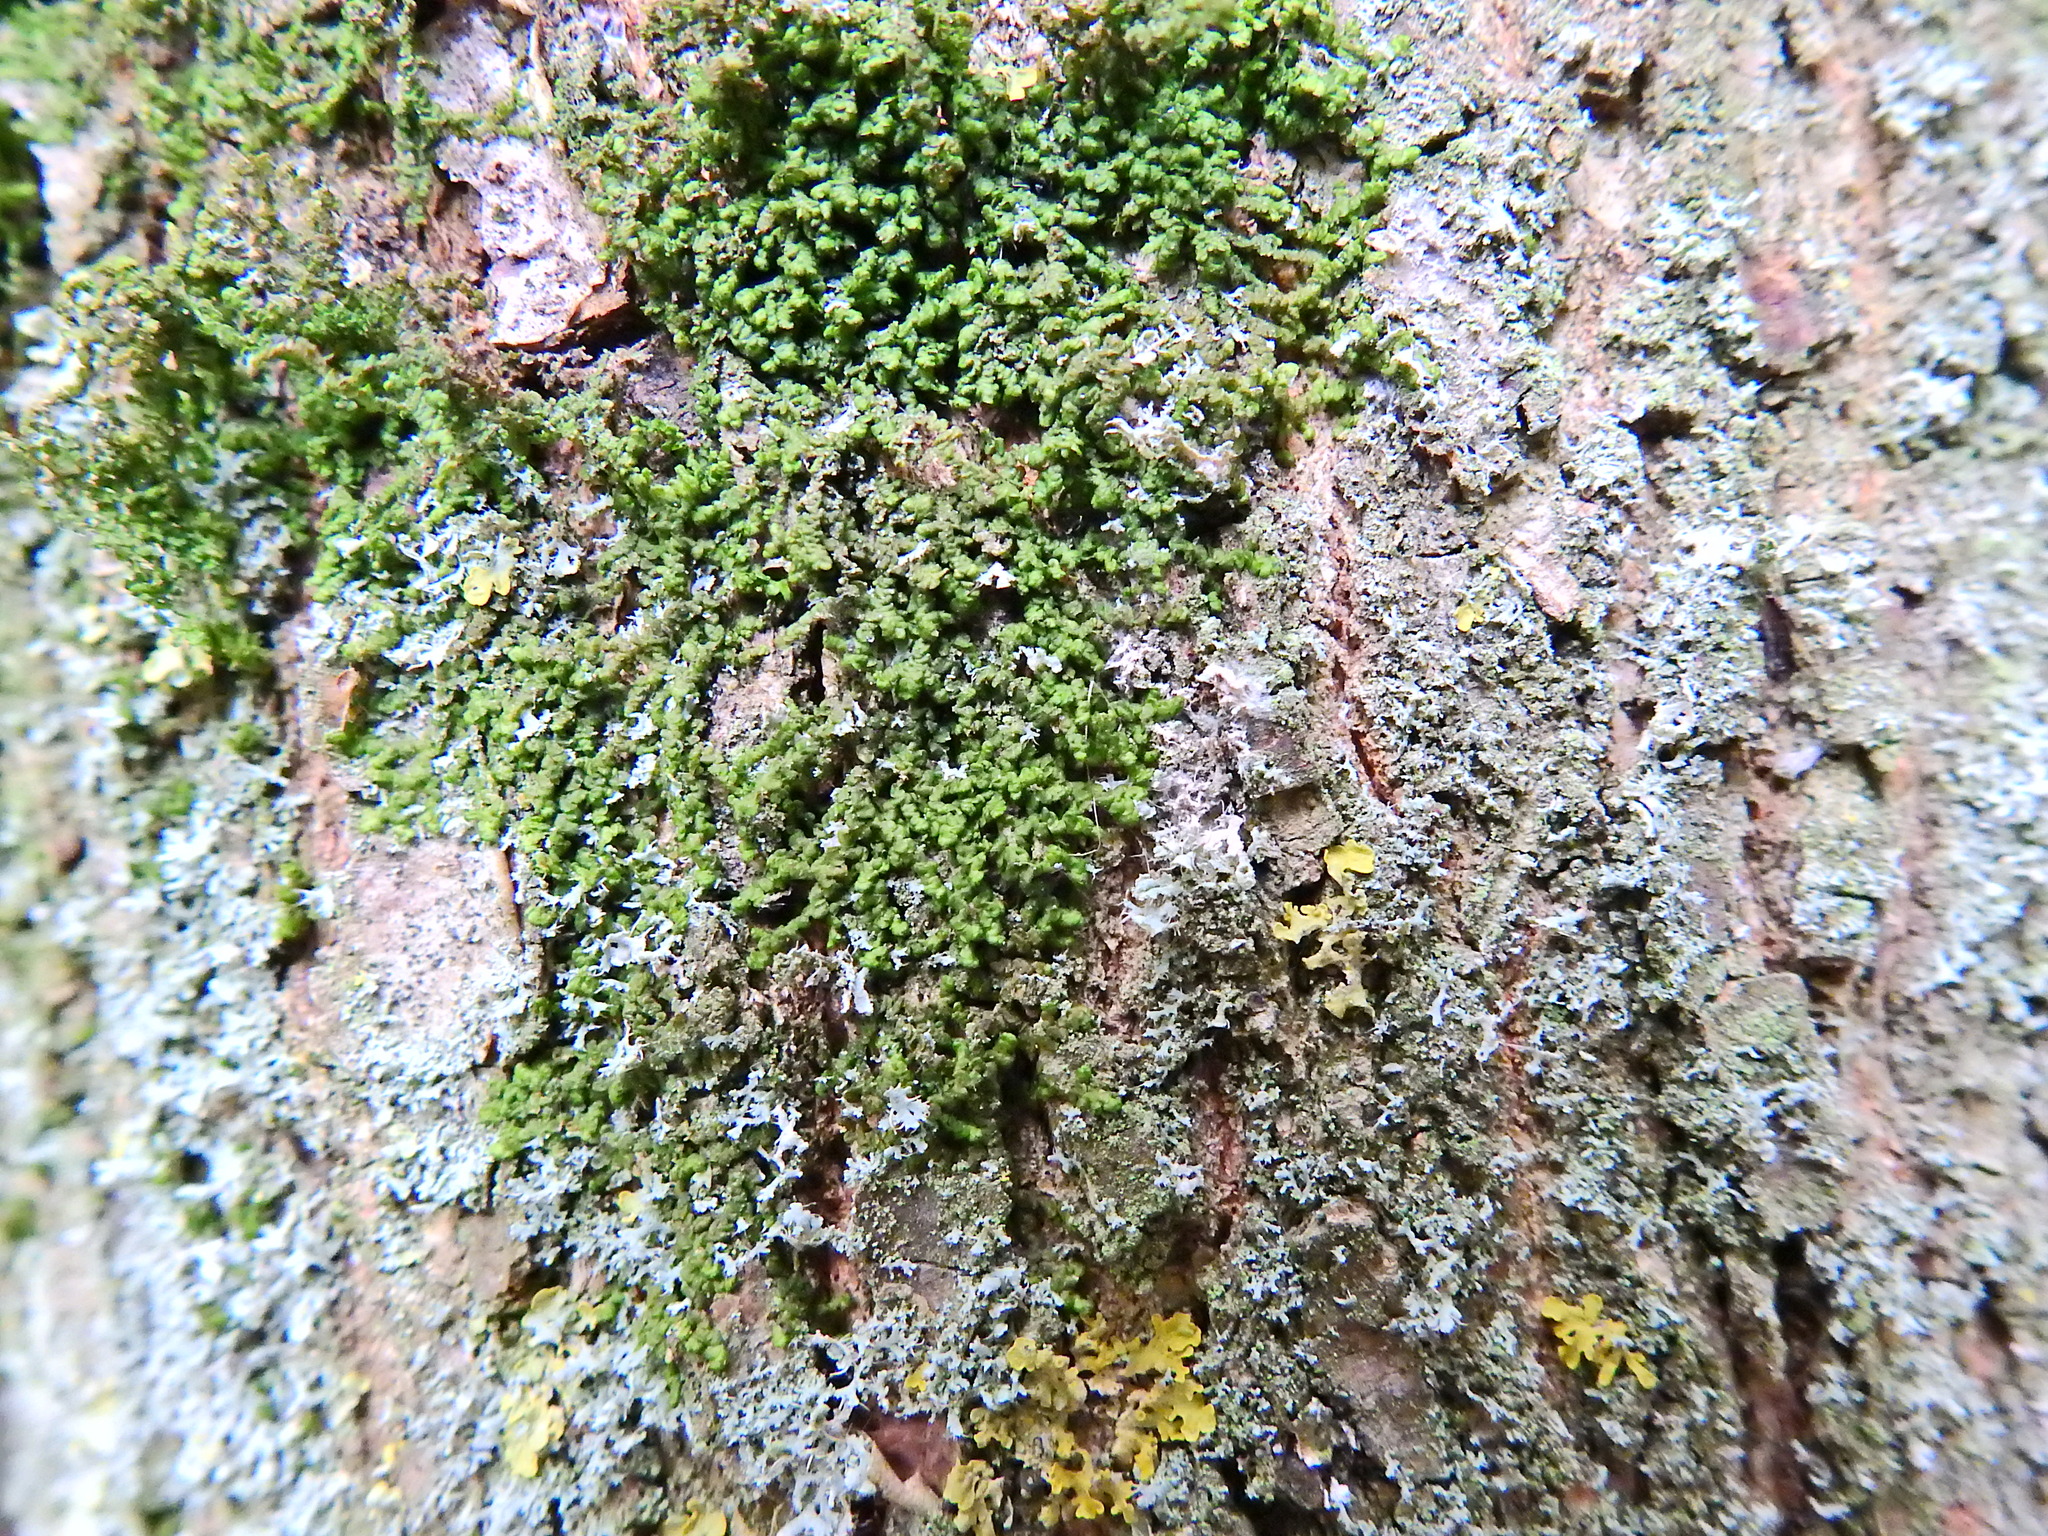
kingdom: Plantae
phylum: Marchantiophyta
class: Jungermanniopsida
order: Porellales
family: Frullaniaceae
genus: Frullania
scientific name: Frullania dilatata
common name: Dilated scalewort
